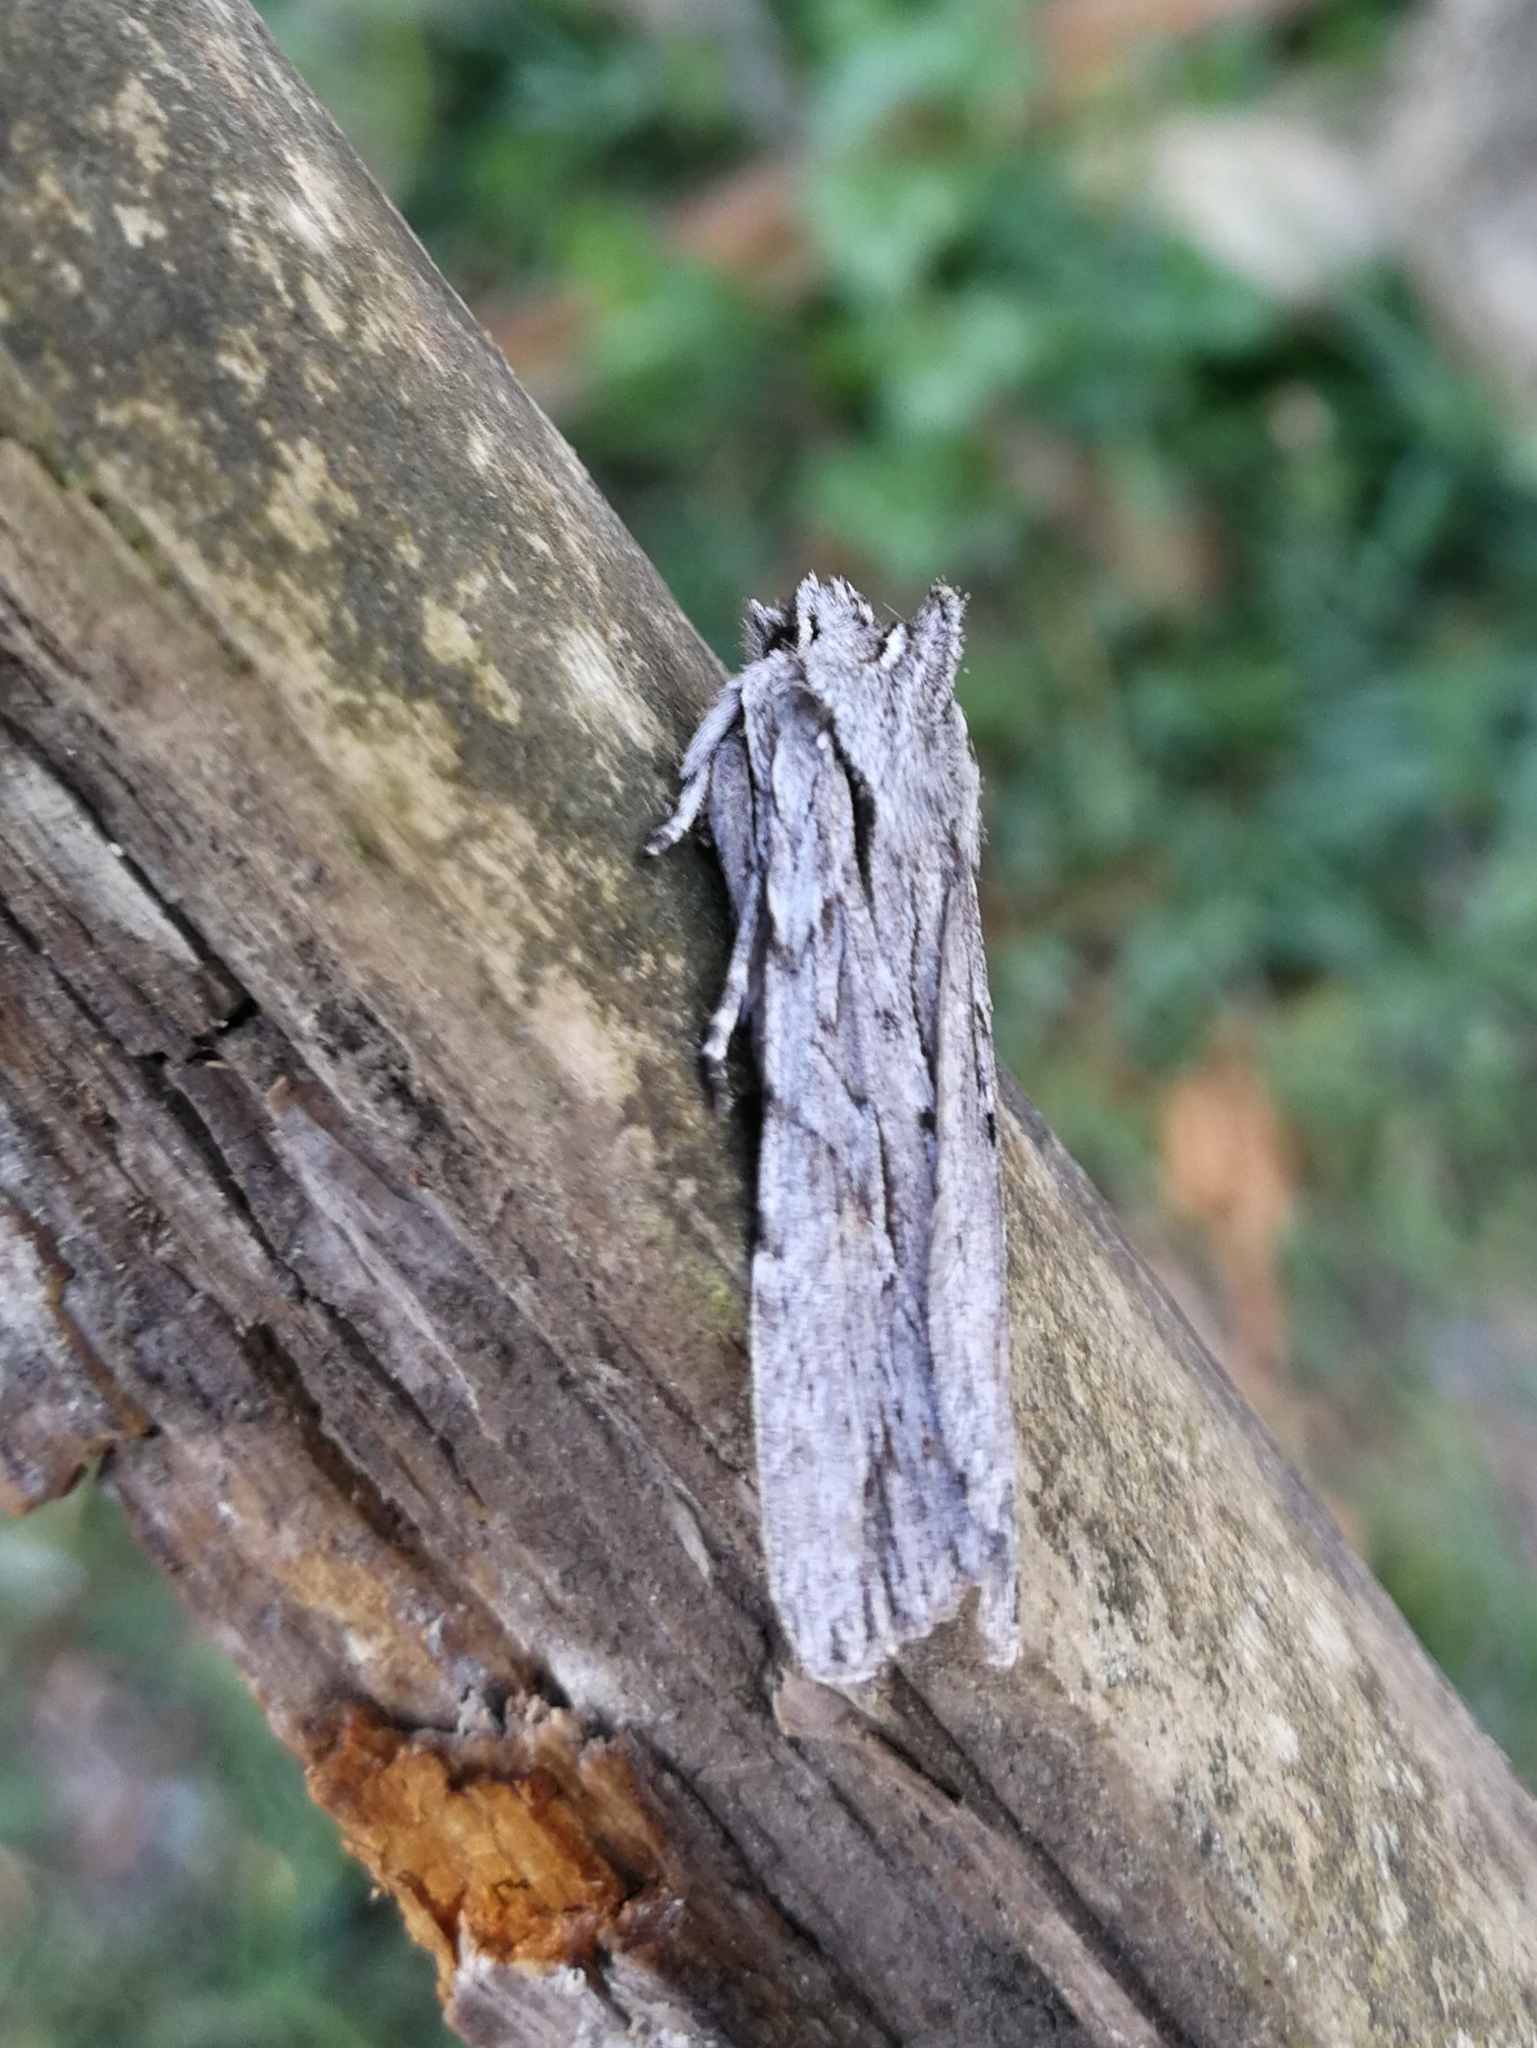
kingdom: Animalia
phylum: Arthropoda
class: Insecta
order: Lepidoptera
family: Noctuidae
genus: Lithophane
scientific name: Lithophane leautieri
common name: Blair's shoulder-knot
